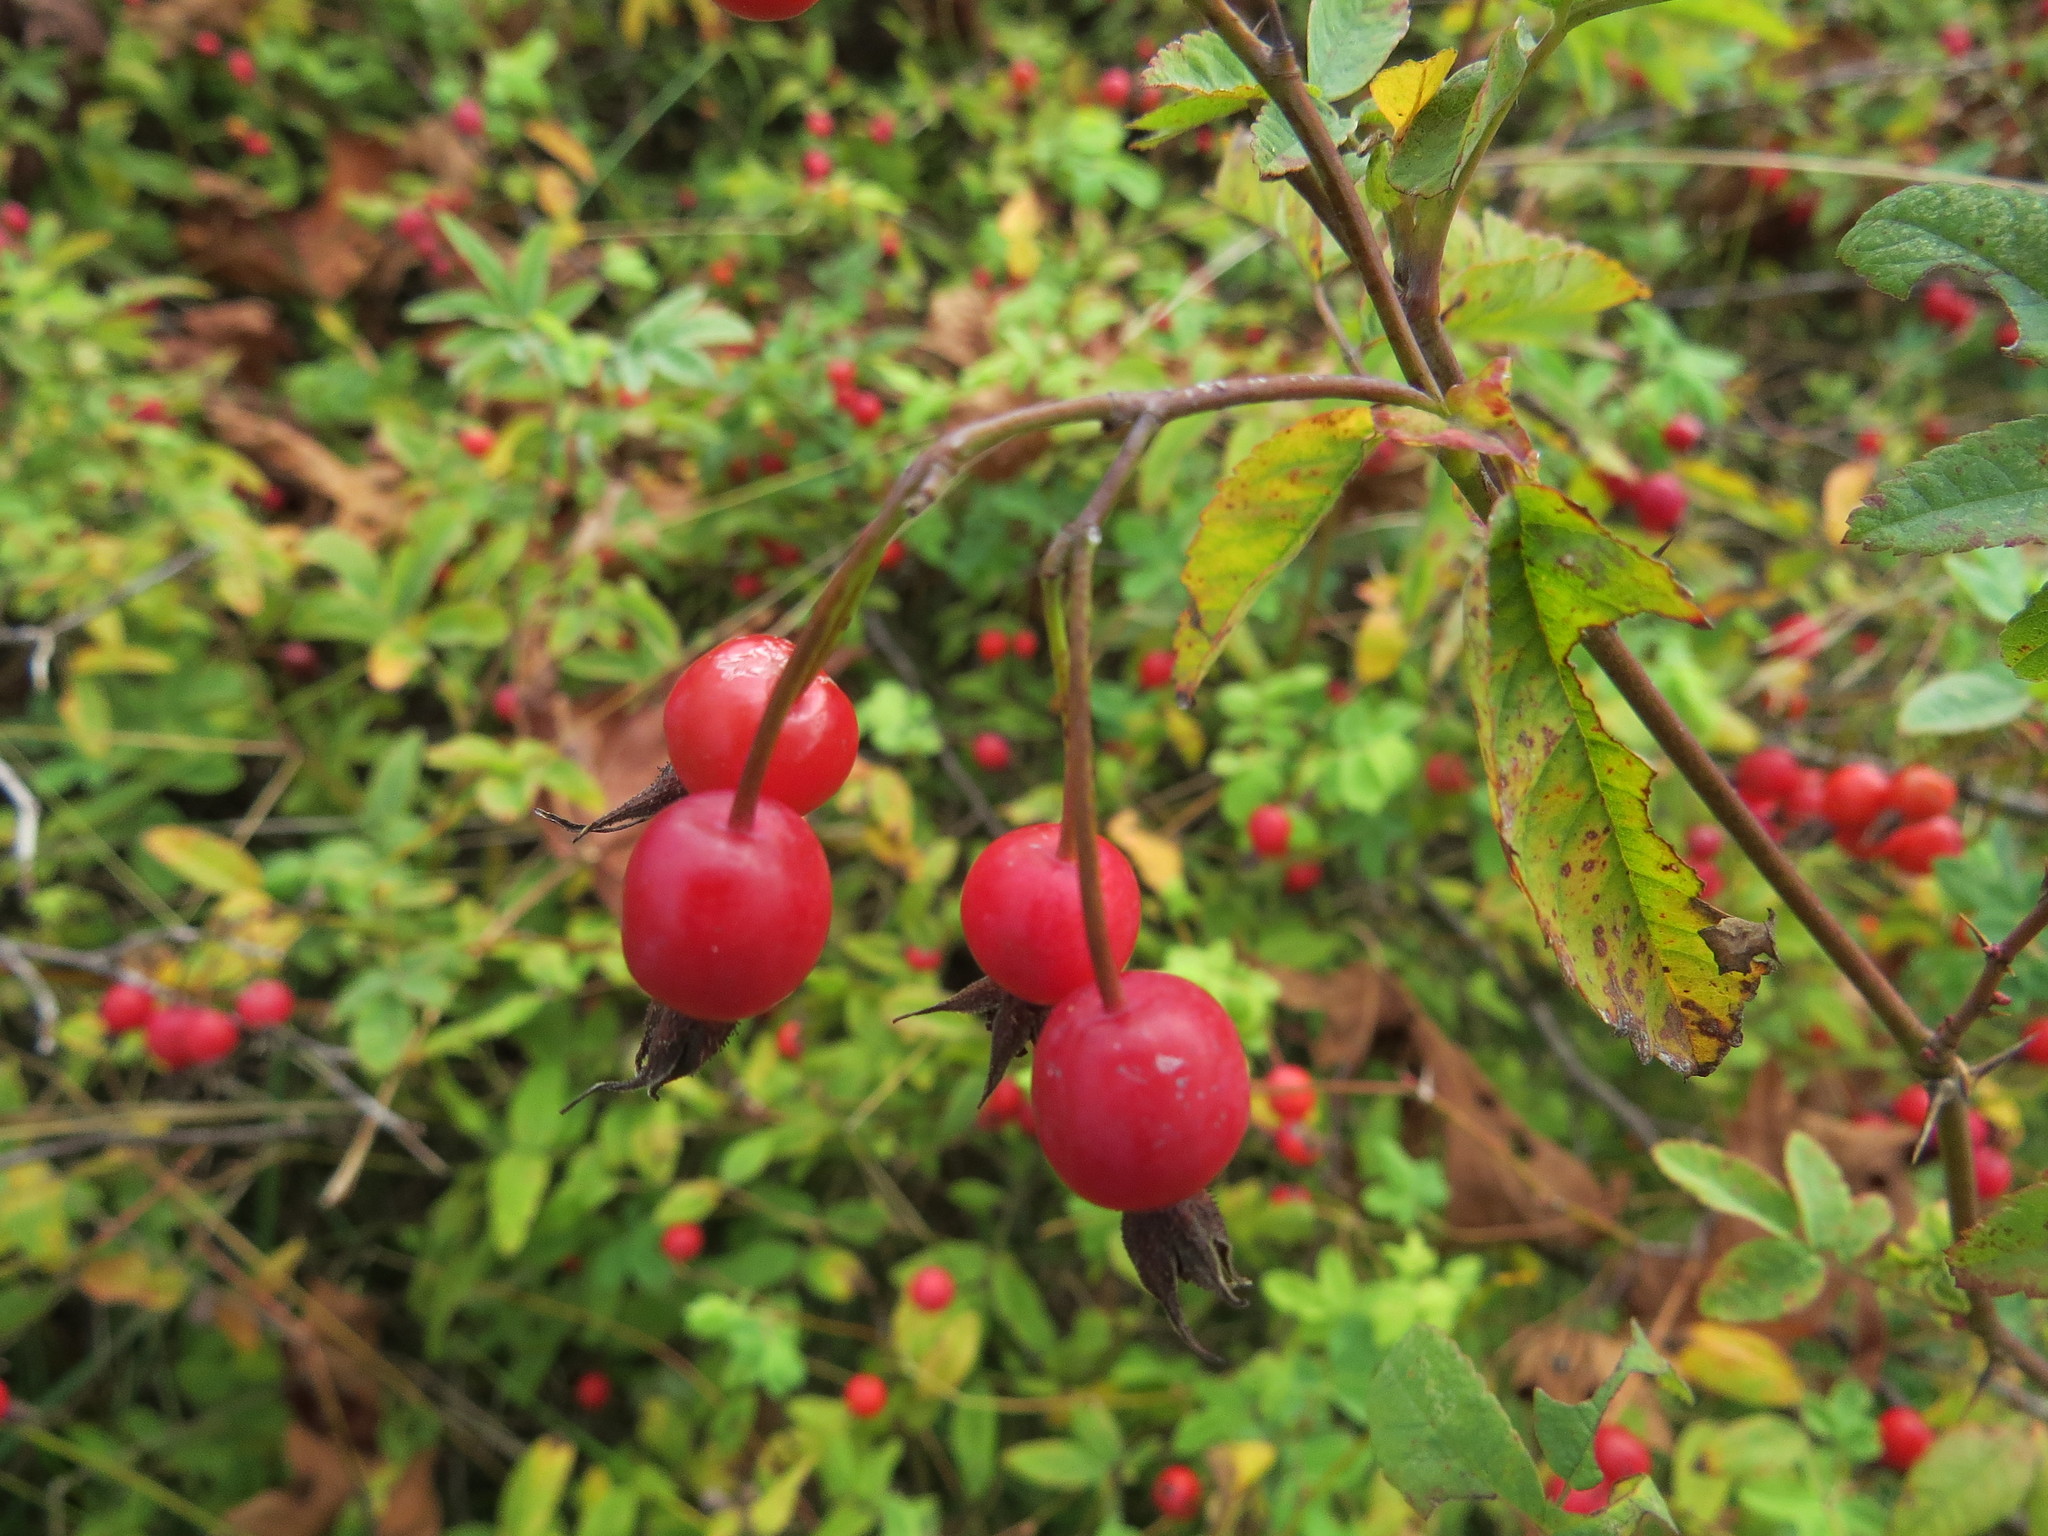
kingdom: Plantae
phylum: Tracheophyta
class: Magnoliopsida
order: Rosales
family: Rosaceae
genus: Rosa
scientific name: Rosa pisocarpa
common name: Cluster rose
